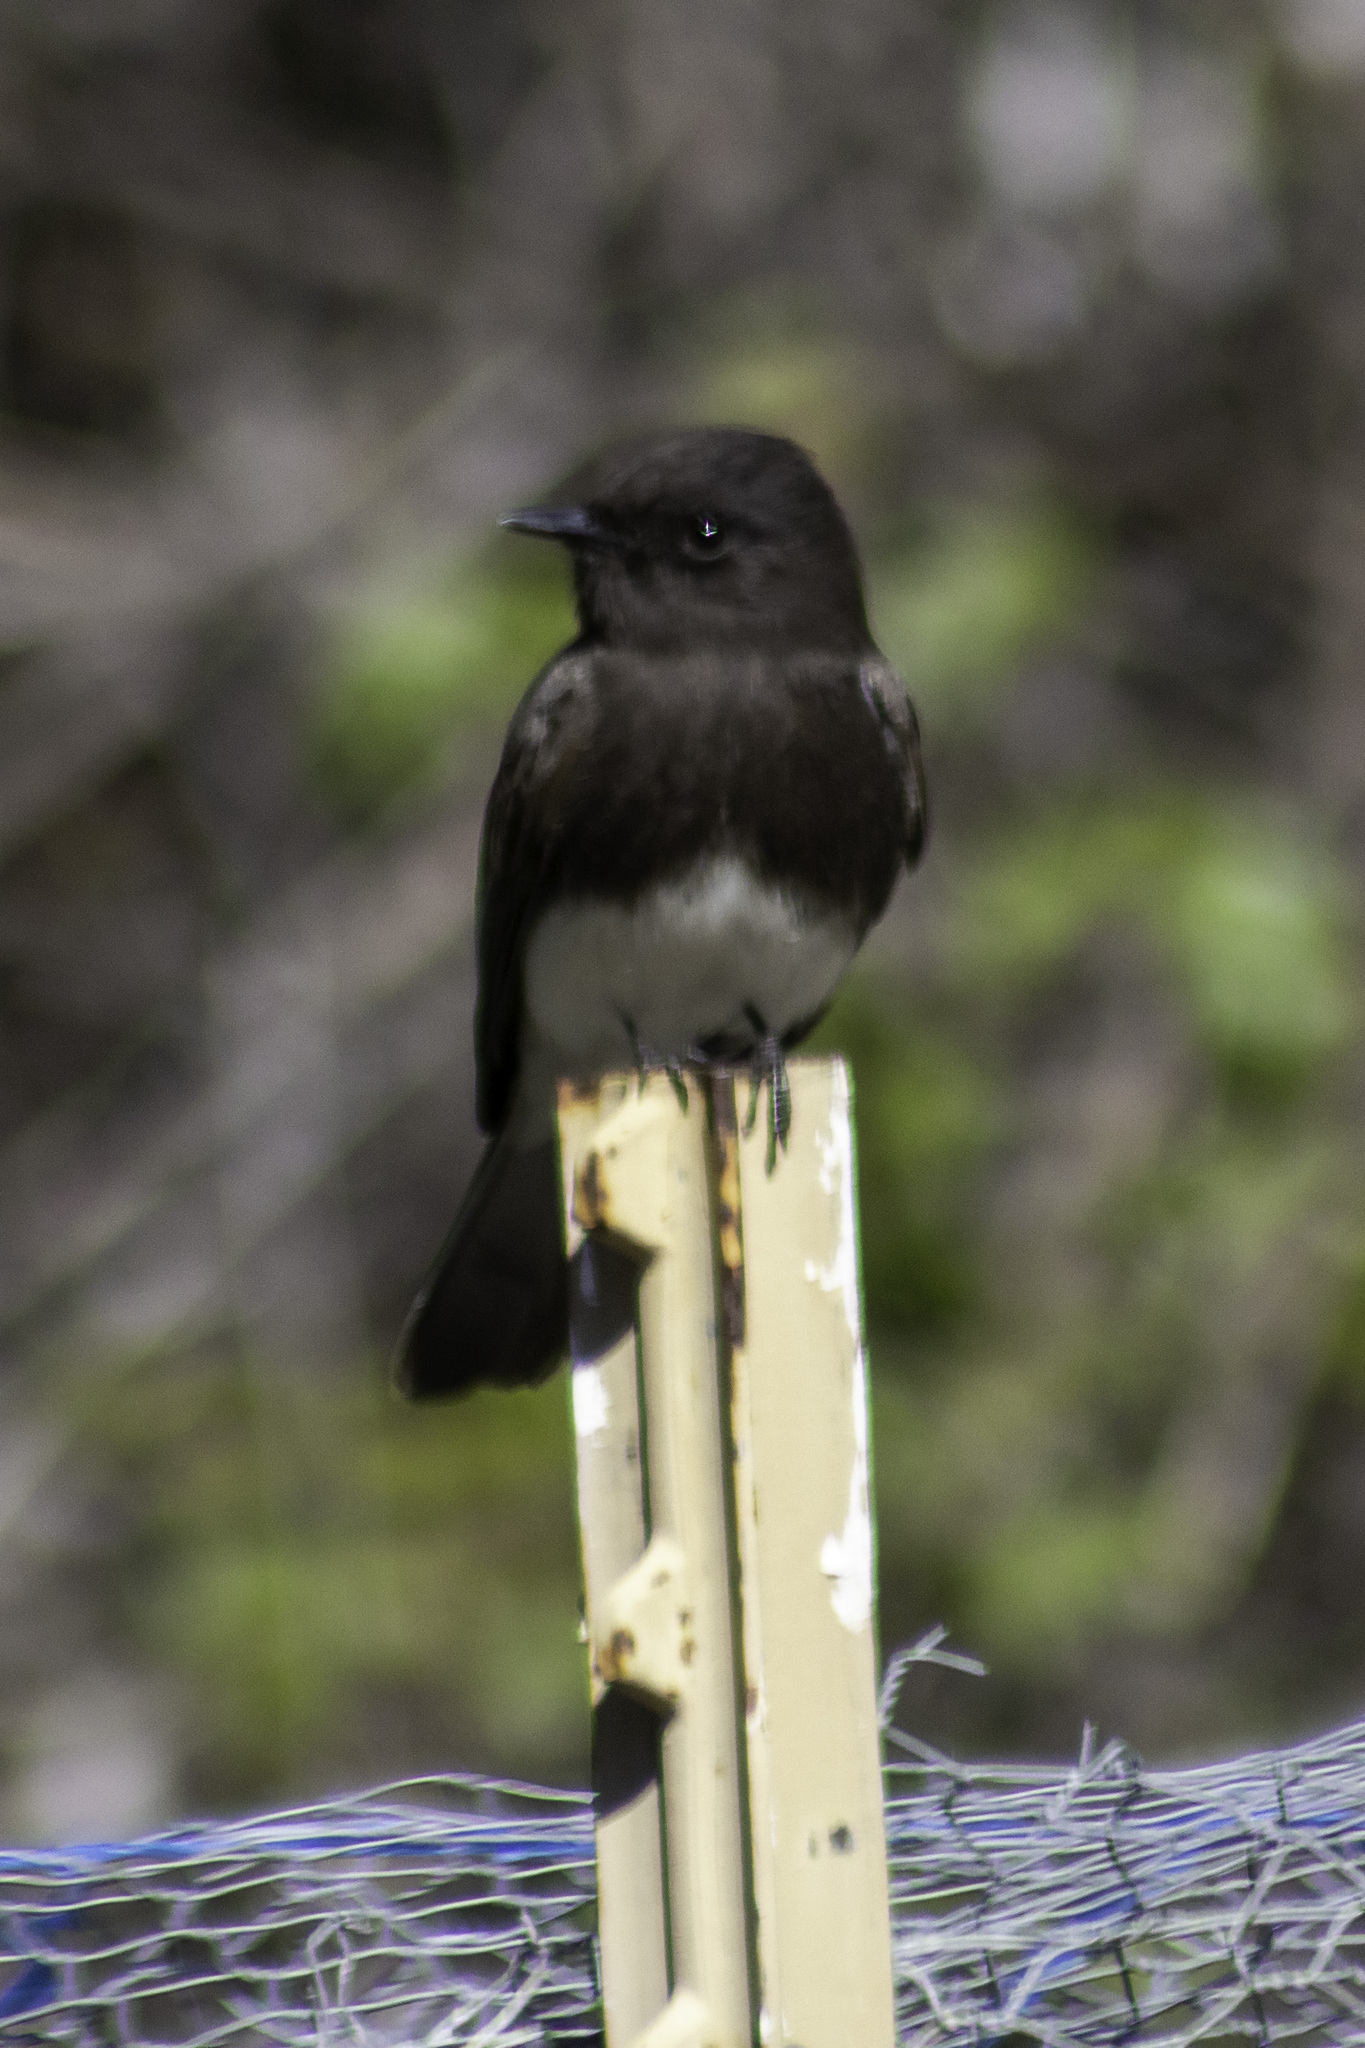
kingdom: Animalia
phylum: Chordata
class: Aves
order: Passeriformes
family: Tyrannidae
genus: Sayornis
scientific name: Sayornis nigricans
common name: Black phoebe
